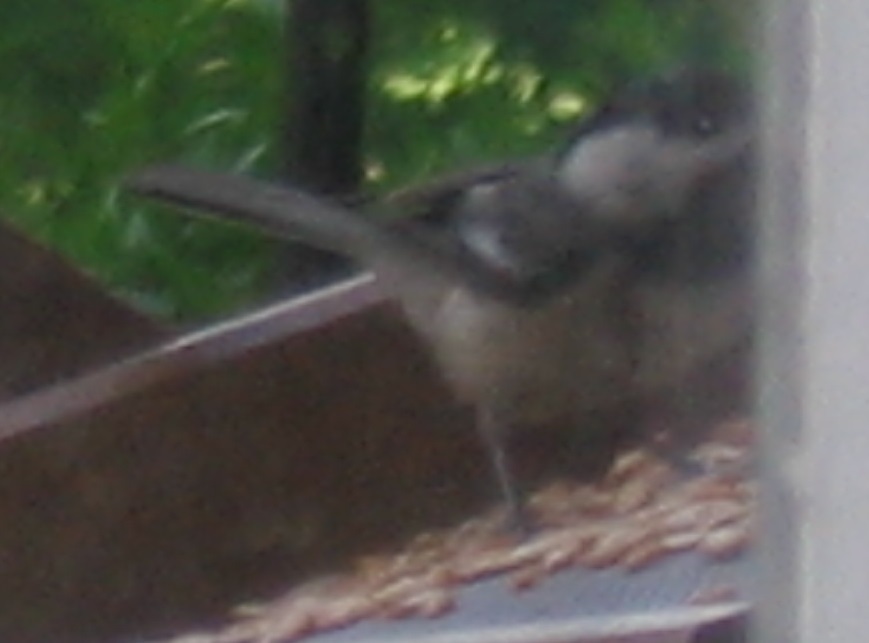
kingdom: Animalia
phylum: Chordata
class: Aves
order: Passeriformes
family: Paridae
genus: Poecile
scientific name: Poecile carolinensis
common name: Carolina chickadee
